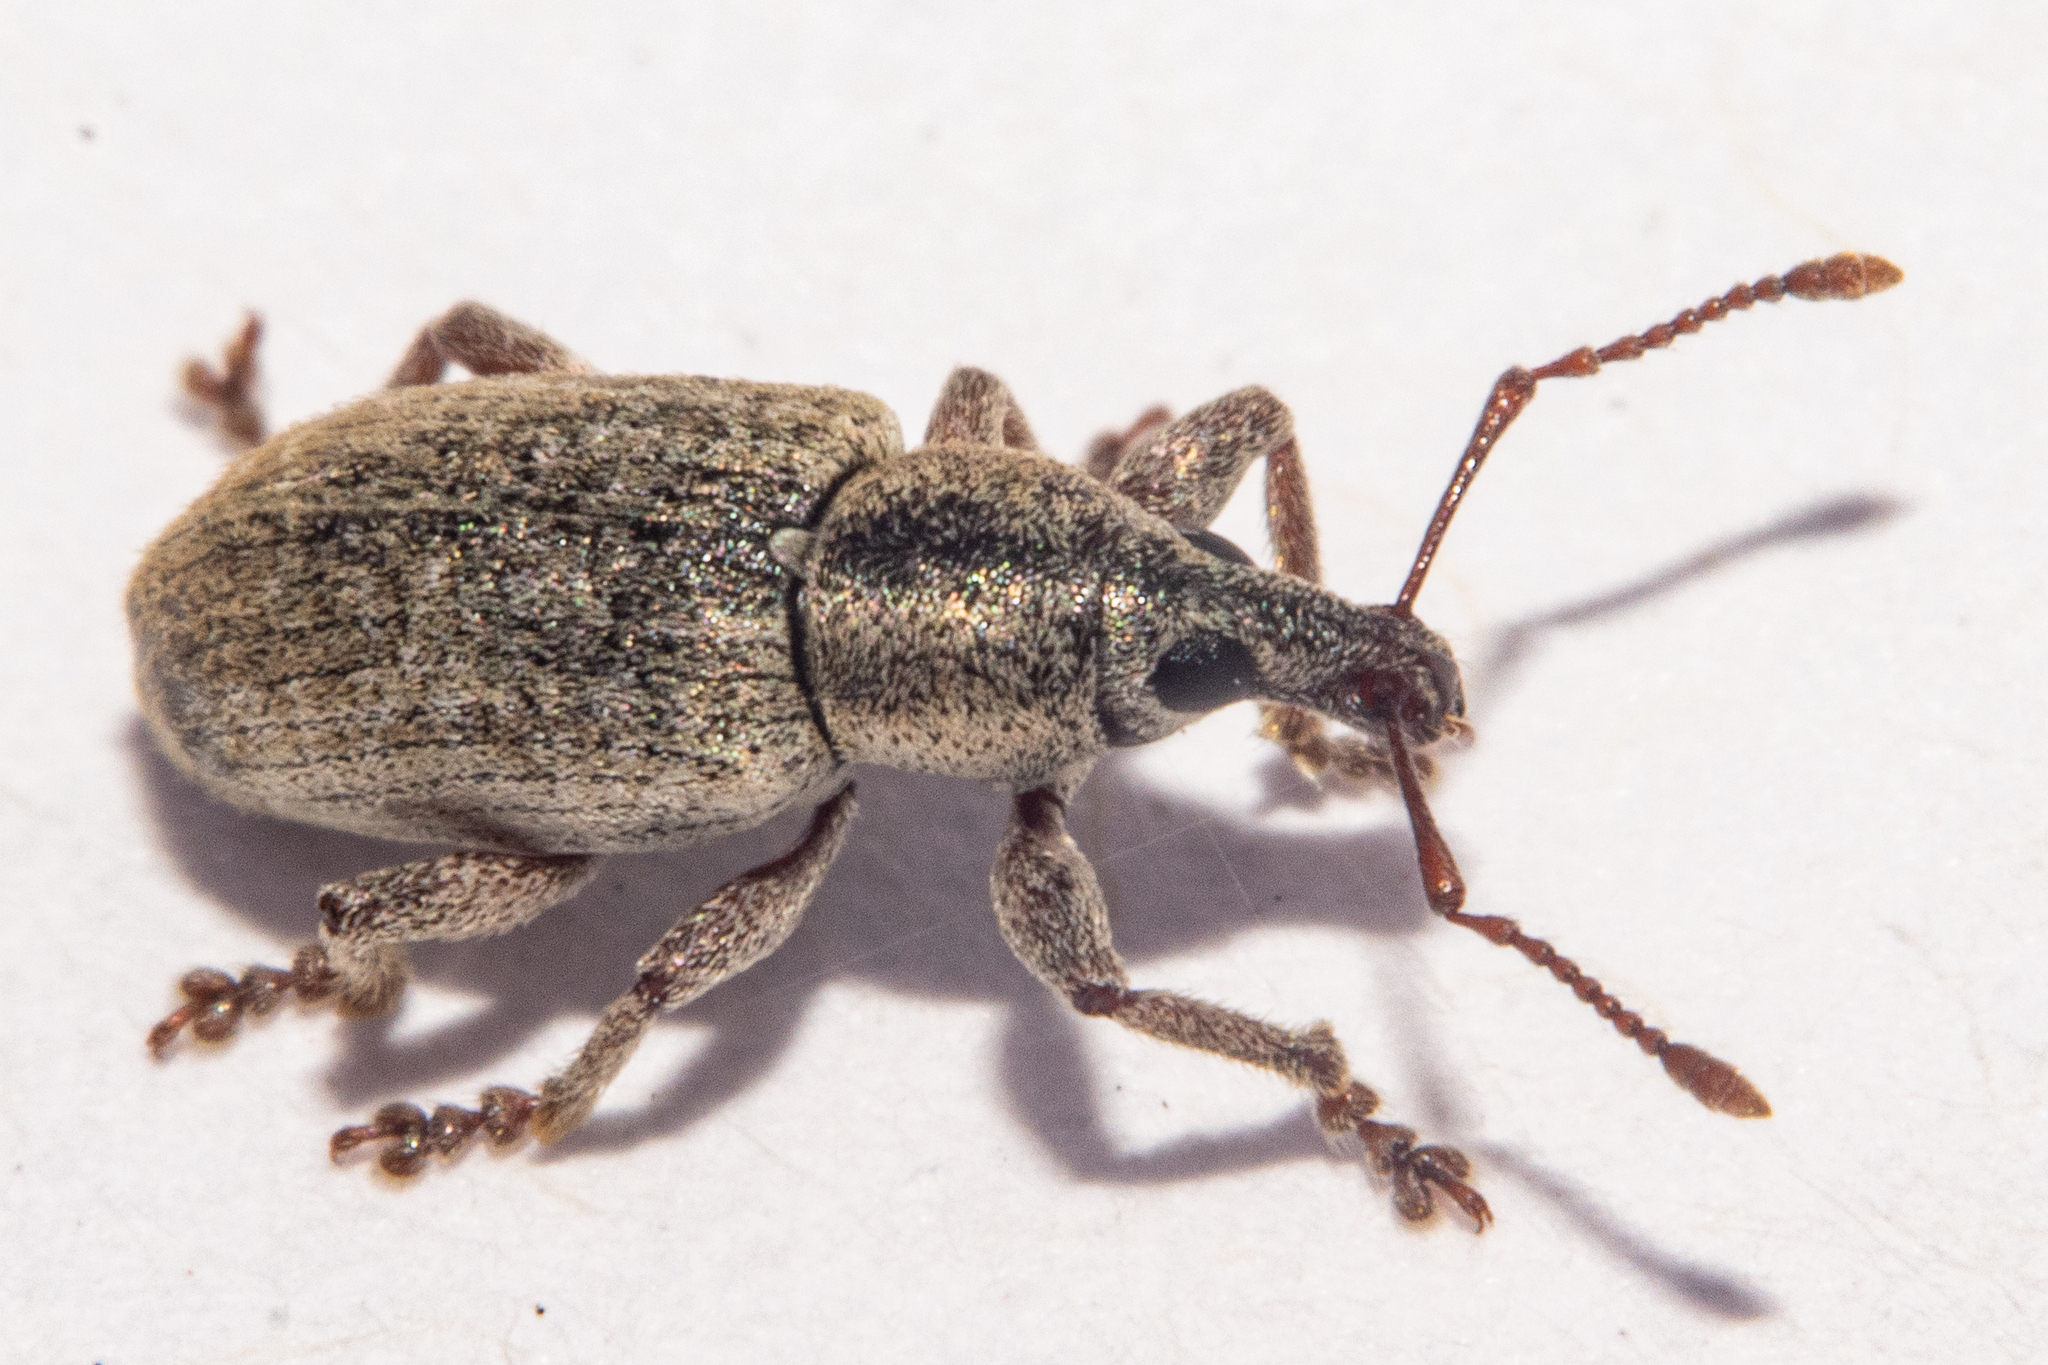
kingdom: Animalia
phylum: Arthropoda
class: Insecta
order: Coleoptera
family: Curculionidae
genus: Nonnotus
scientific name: Nonnotus albicans
